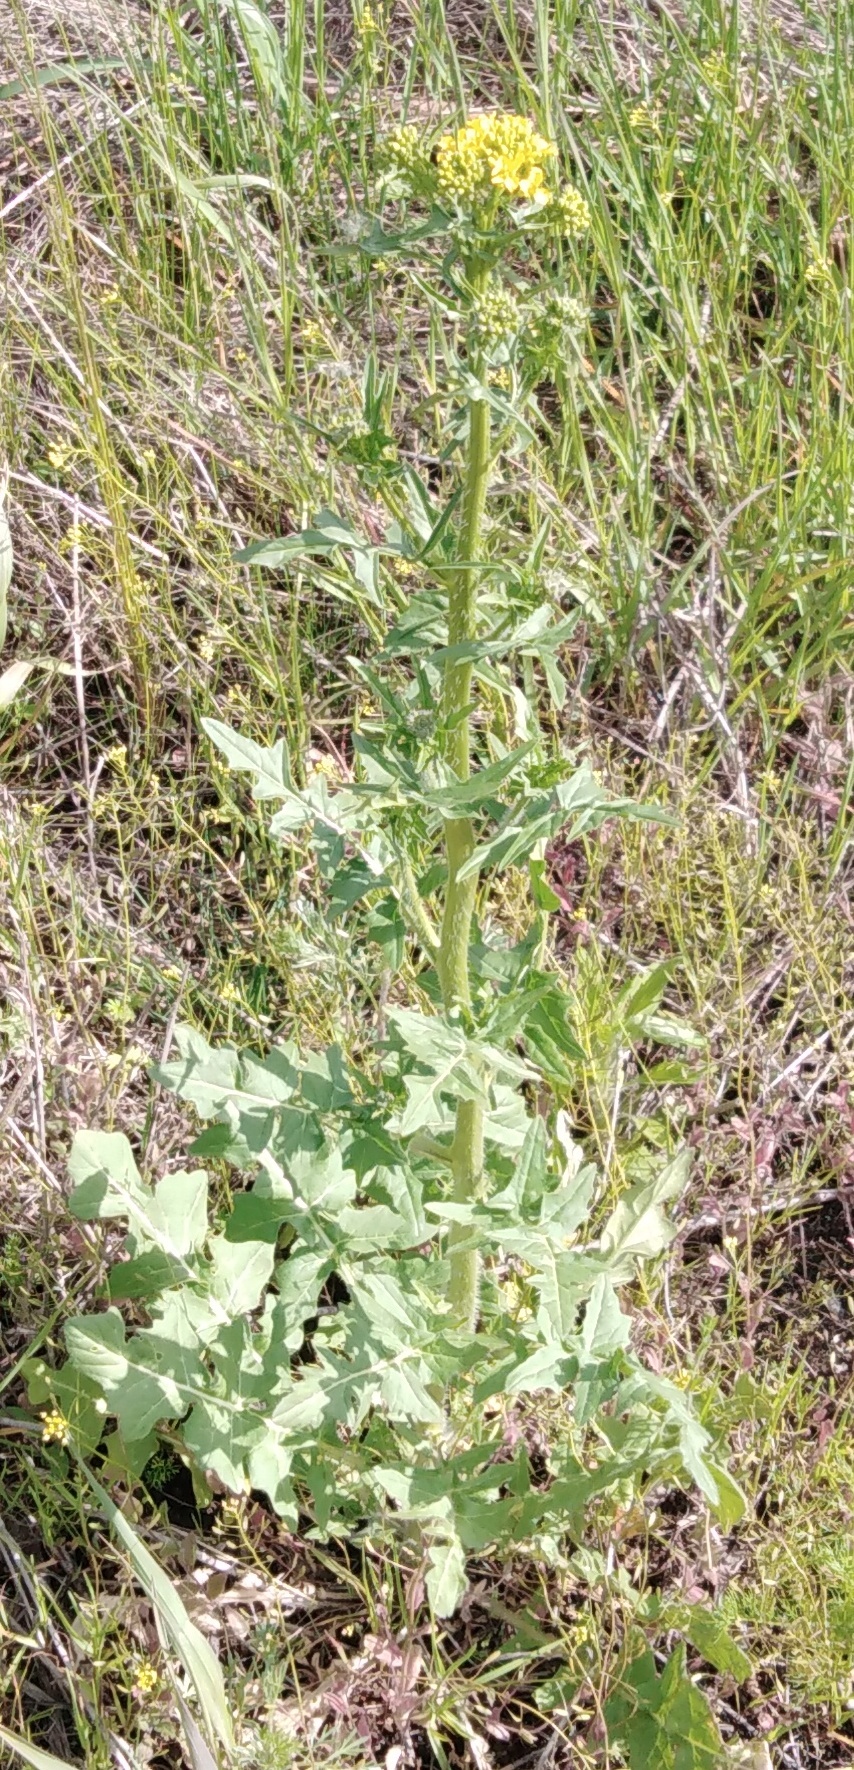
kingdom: Plantae
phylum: Tracheophyta
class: Magnoliopsida
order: Brassicales
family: Brassicaceae
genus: Sisymbrium
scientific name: Sisymbrium loeselii
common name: False london-rocket
